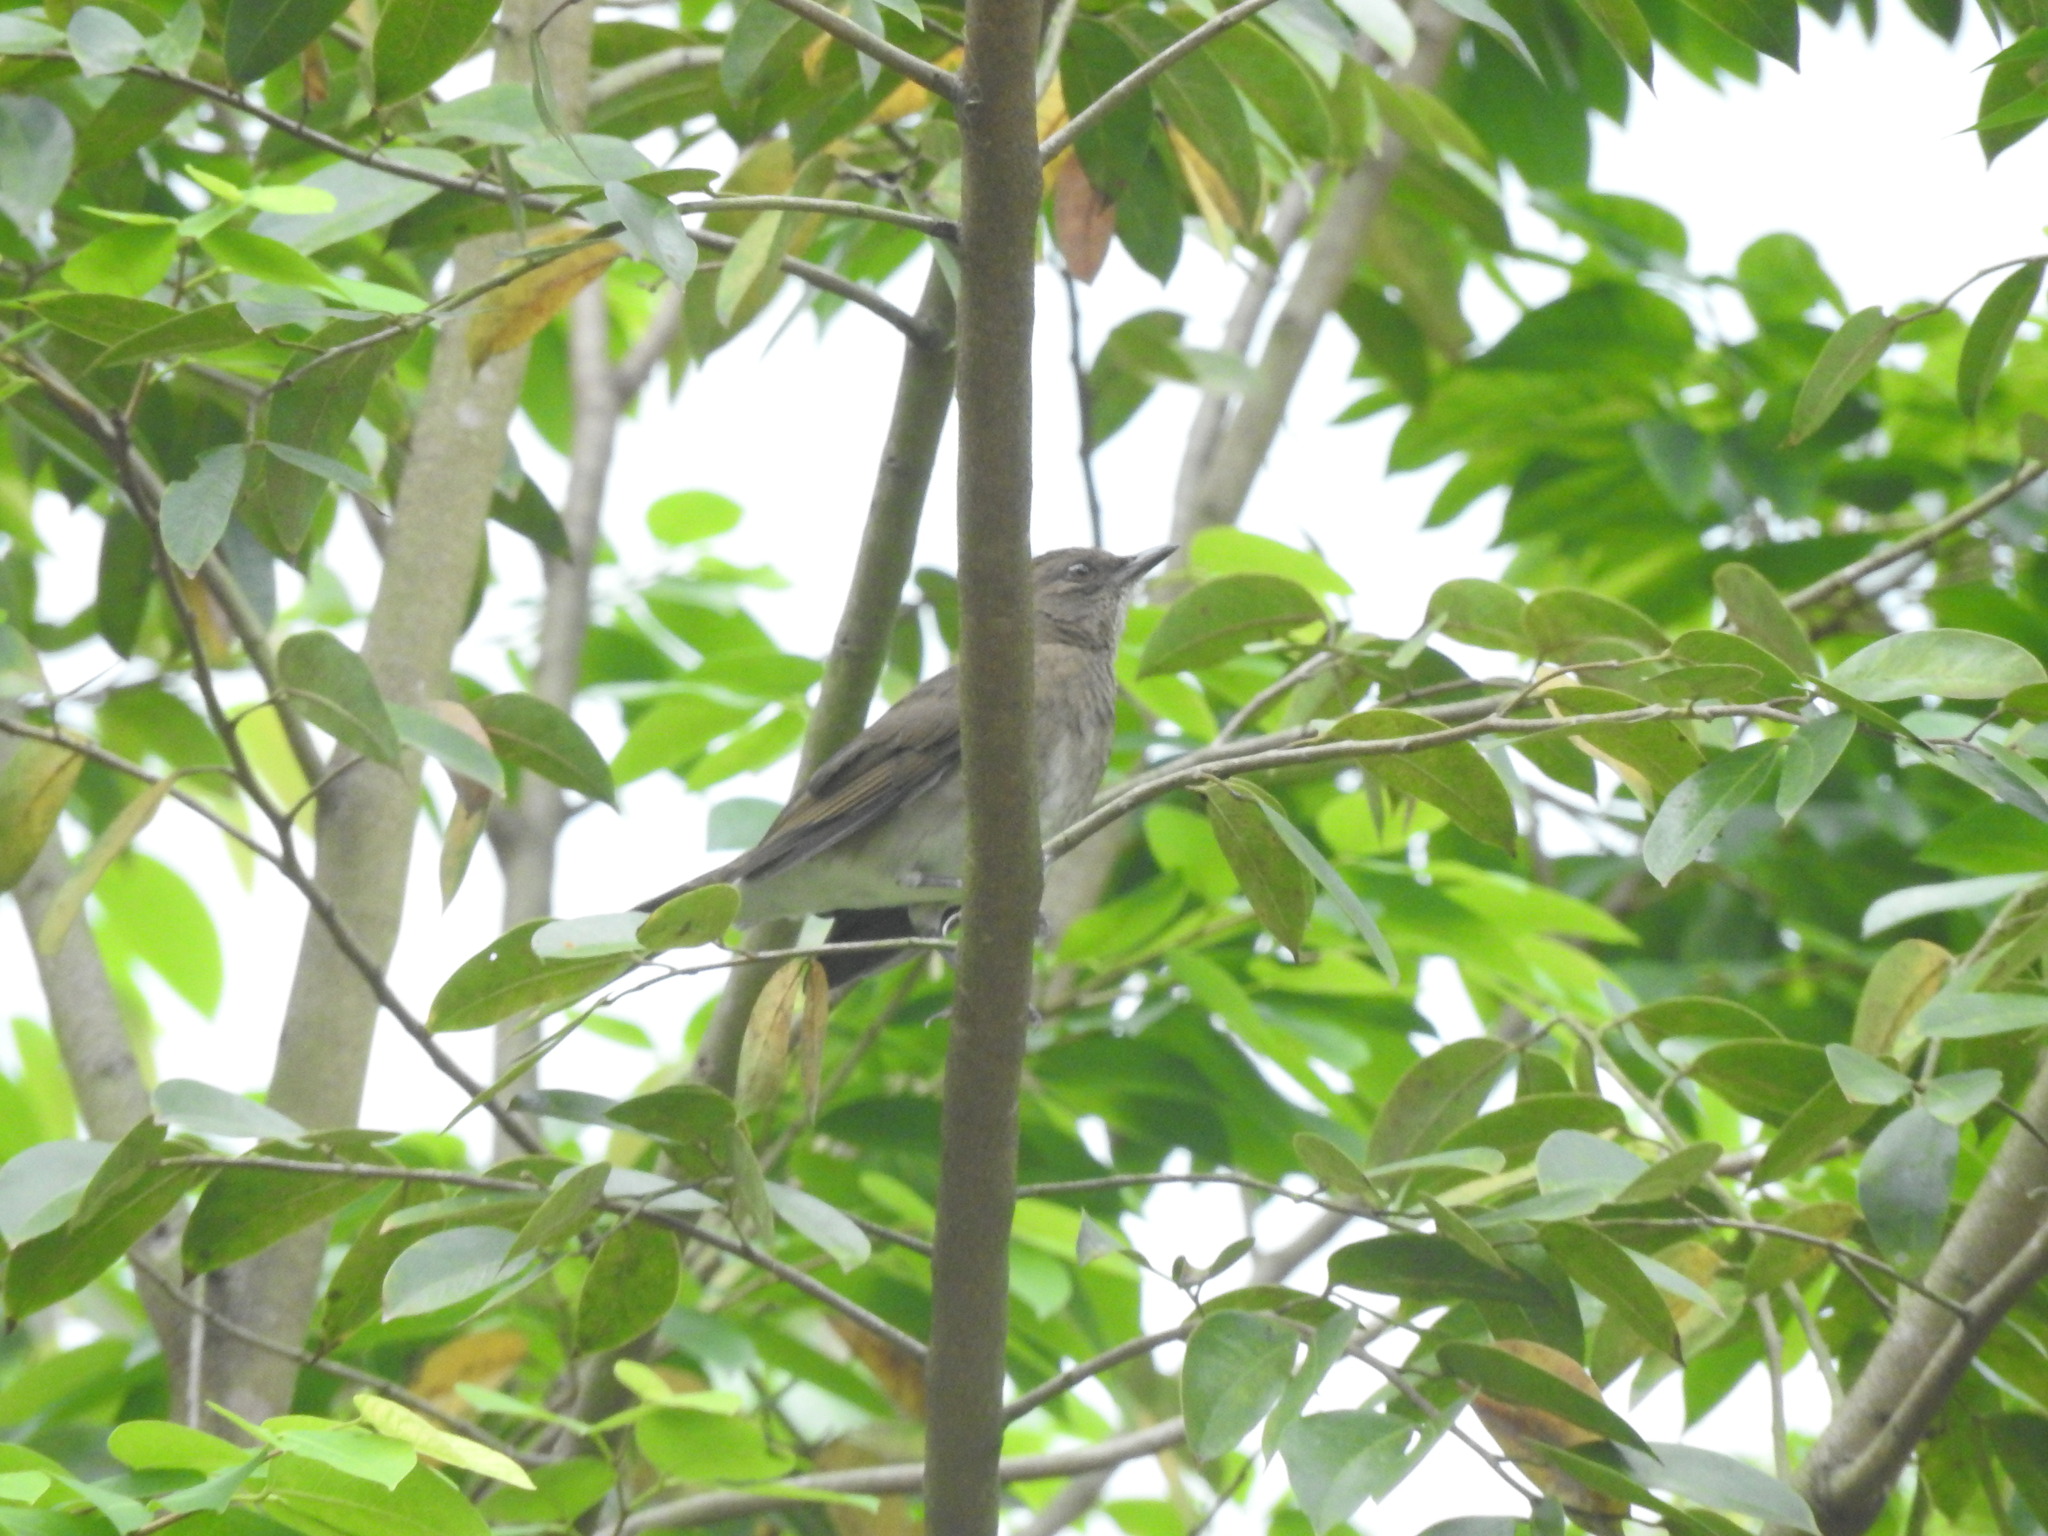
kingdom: Animalia
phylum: Chordata
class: Aves
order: Passeriformes
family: Turdidae
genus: Turdus
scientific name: Turdus ignobilis
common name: Black-billed thrush
